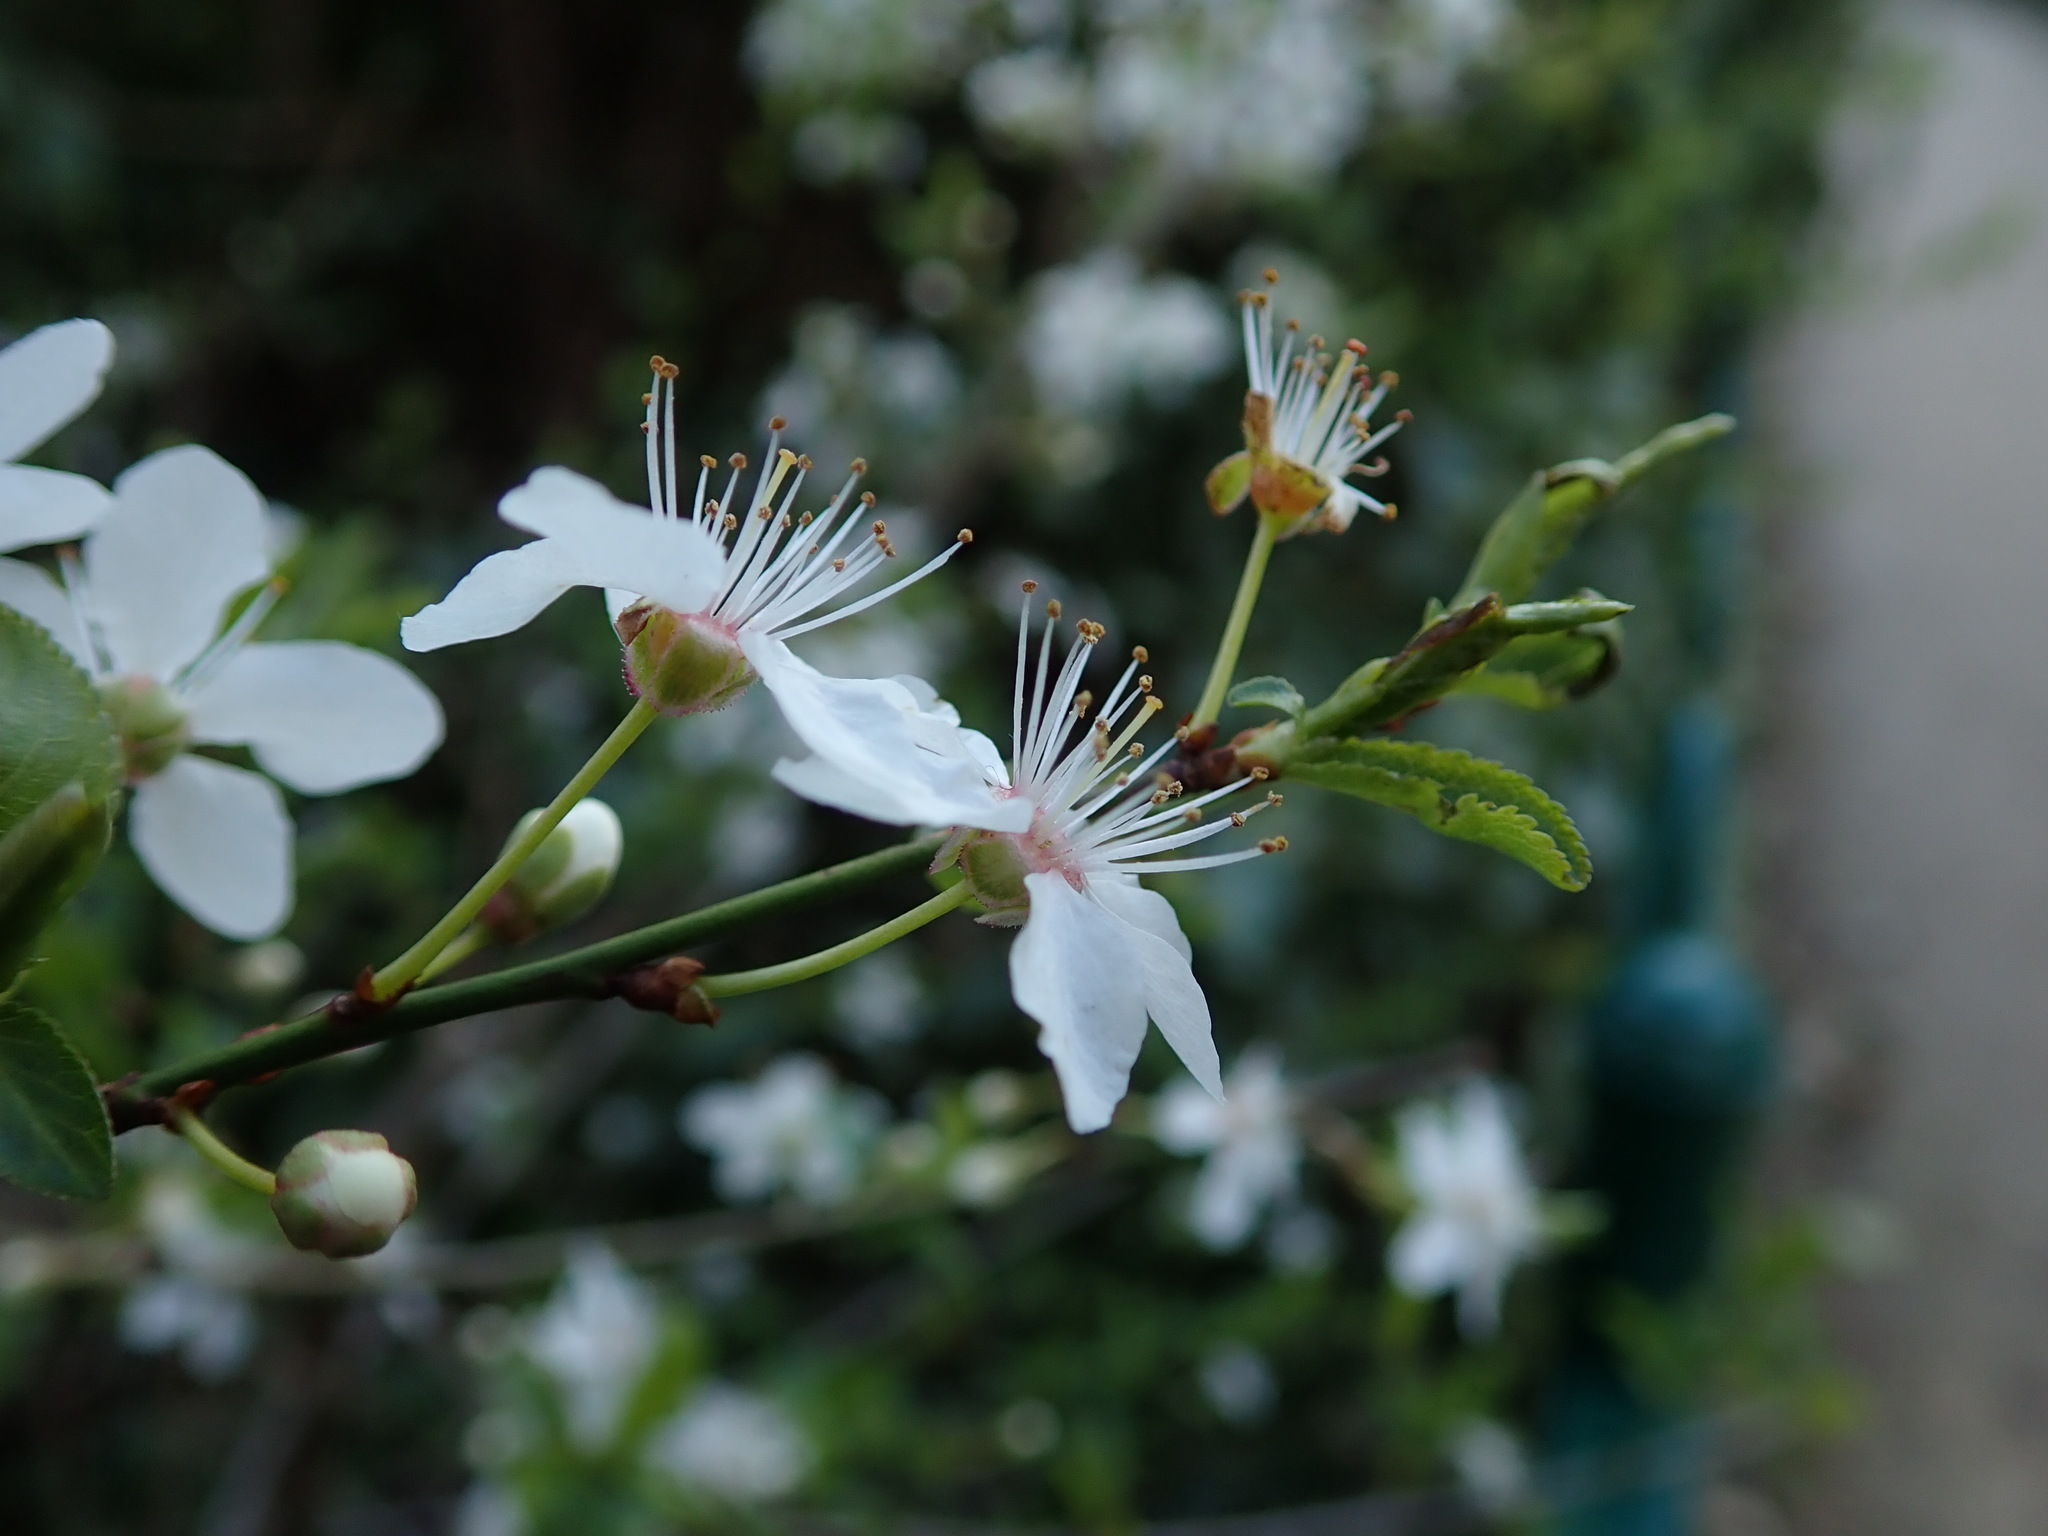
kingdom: Plantae
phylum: Tracheophyta
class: Magnoliopsida
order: Rosales
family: Rosaceae
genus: Prunus
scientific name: Prunus cerasifera
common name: Cherry plum
